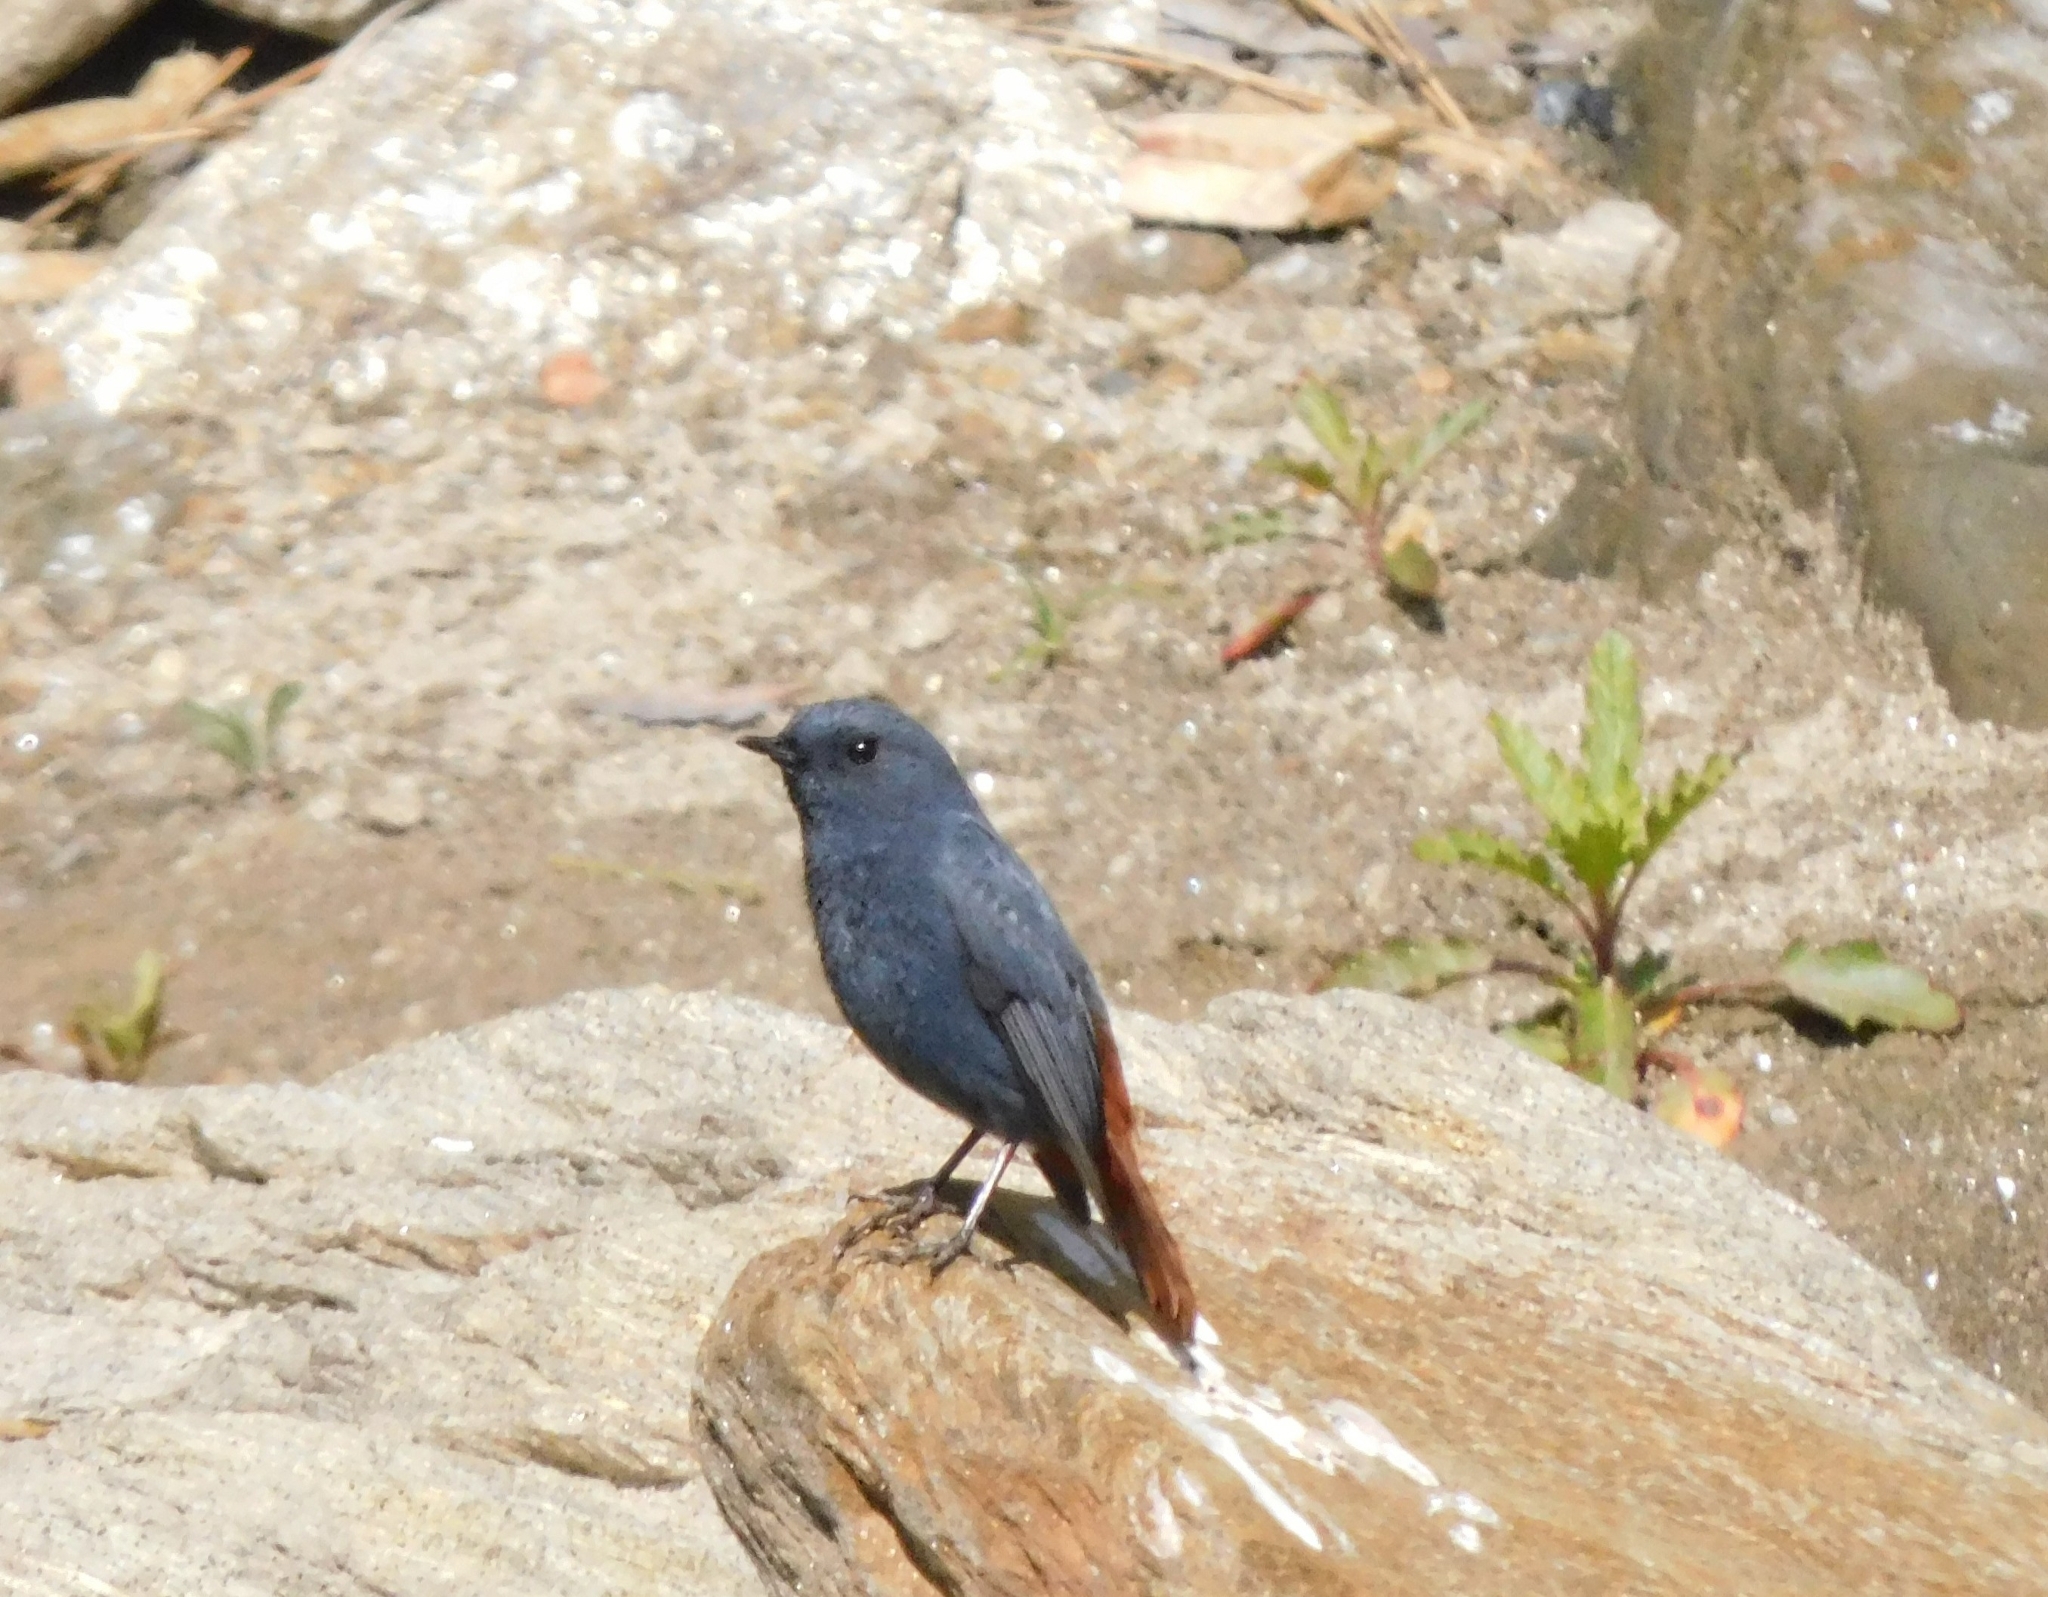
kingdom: Animalia
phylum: Chordata
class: Aves
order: Passeriformes
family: Muscicapidae
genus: Phoenicurus
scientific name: Phoenicurus fuliginosus
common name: Plumbeous water redstart
